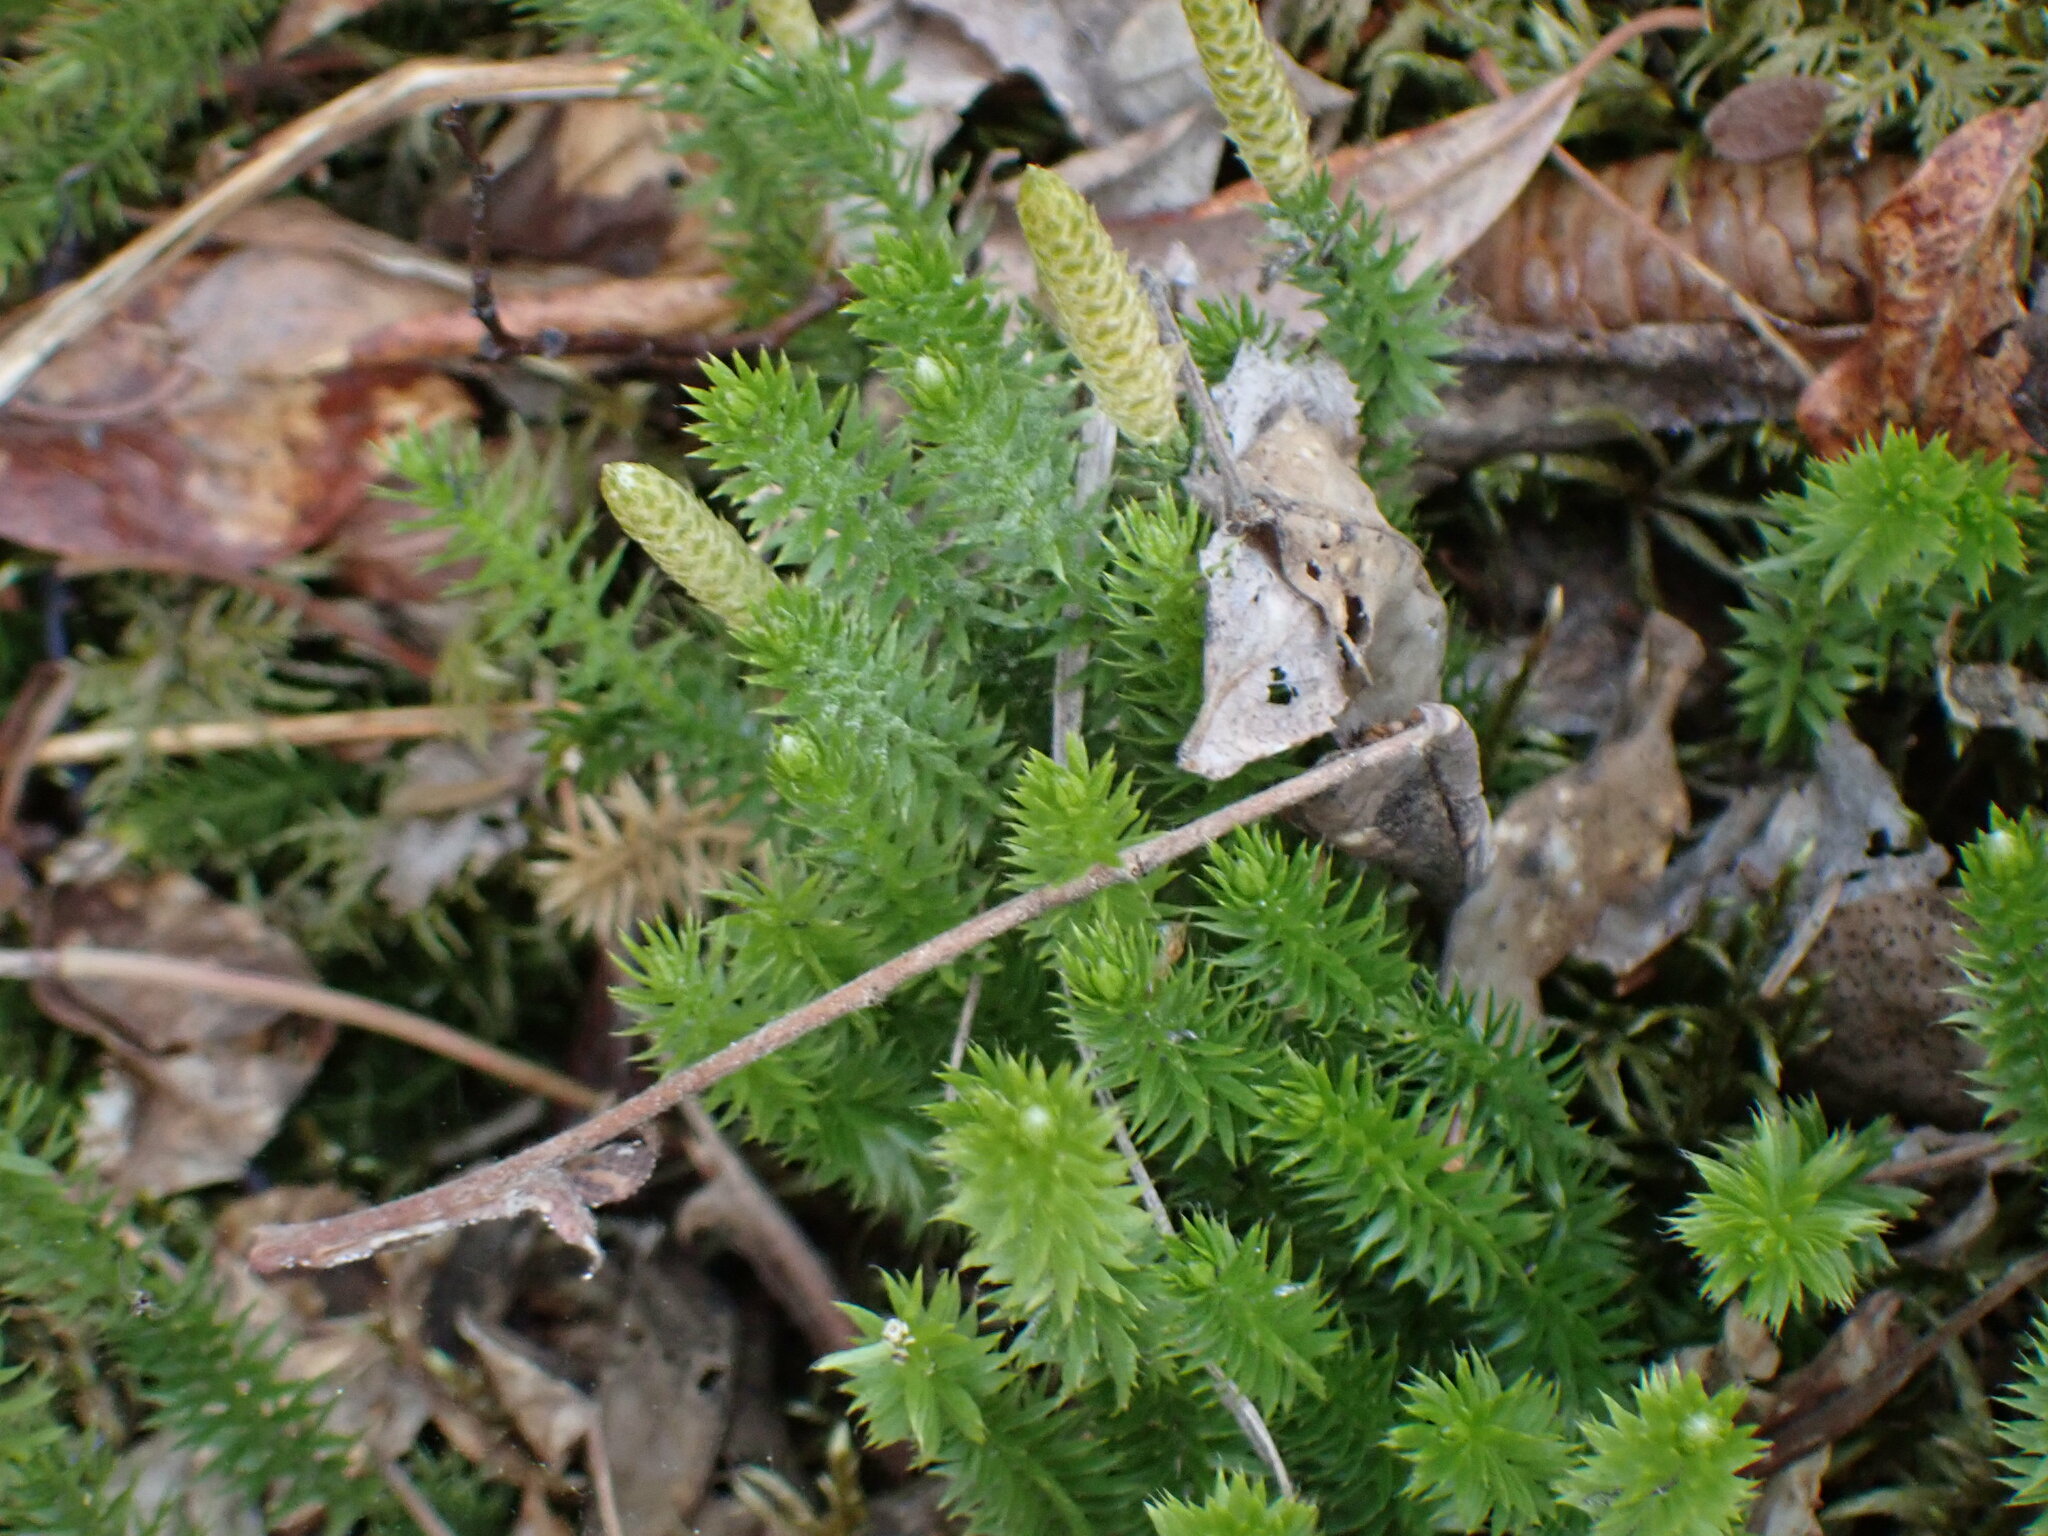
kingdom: Plantae
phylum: Tracheophyta
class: Lycopodiopsida
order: Lycopodiales
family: Lycopodiaceae
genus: Spinulum
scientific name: Spinulum annotinum
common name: Interrupted club-moss
